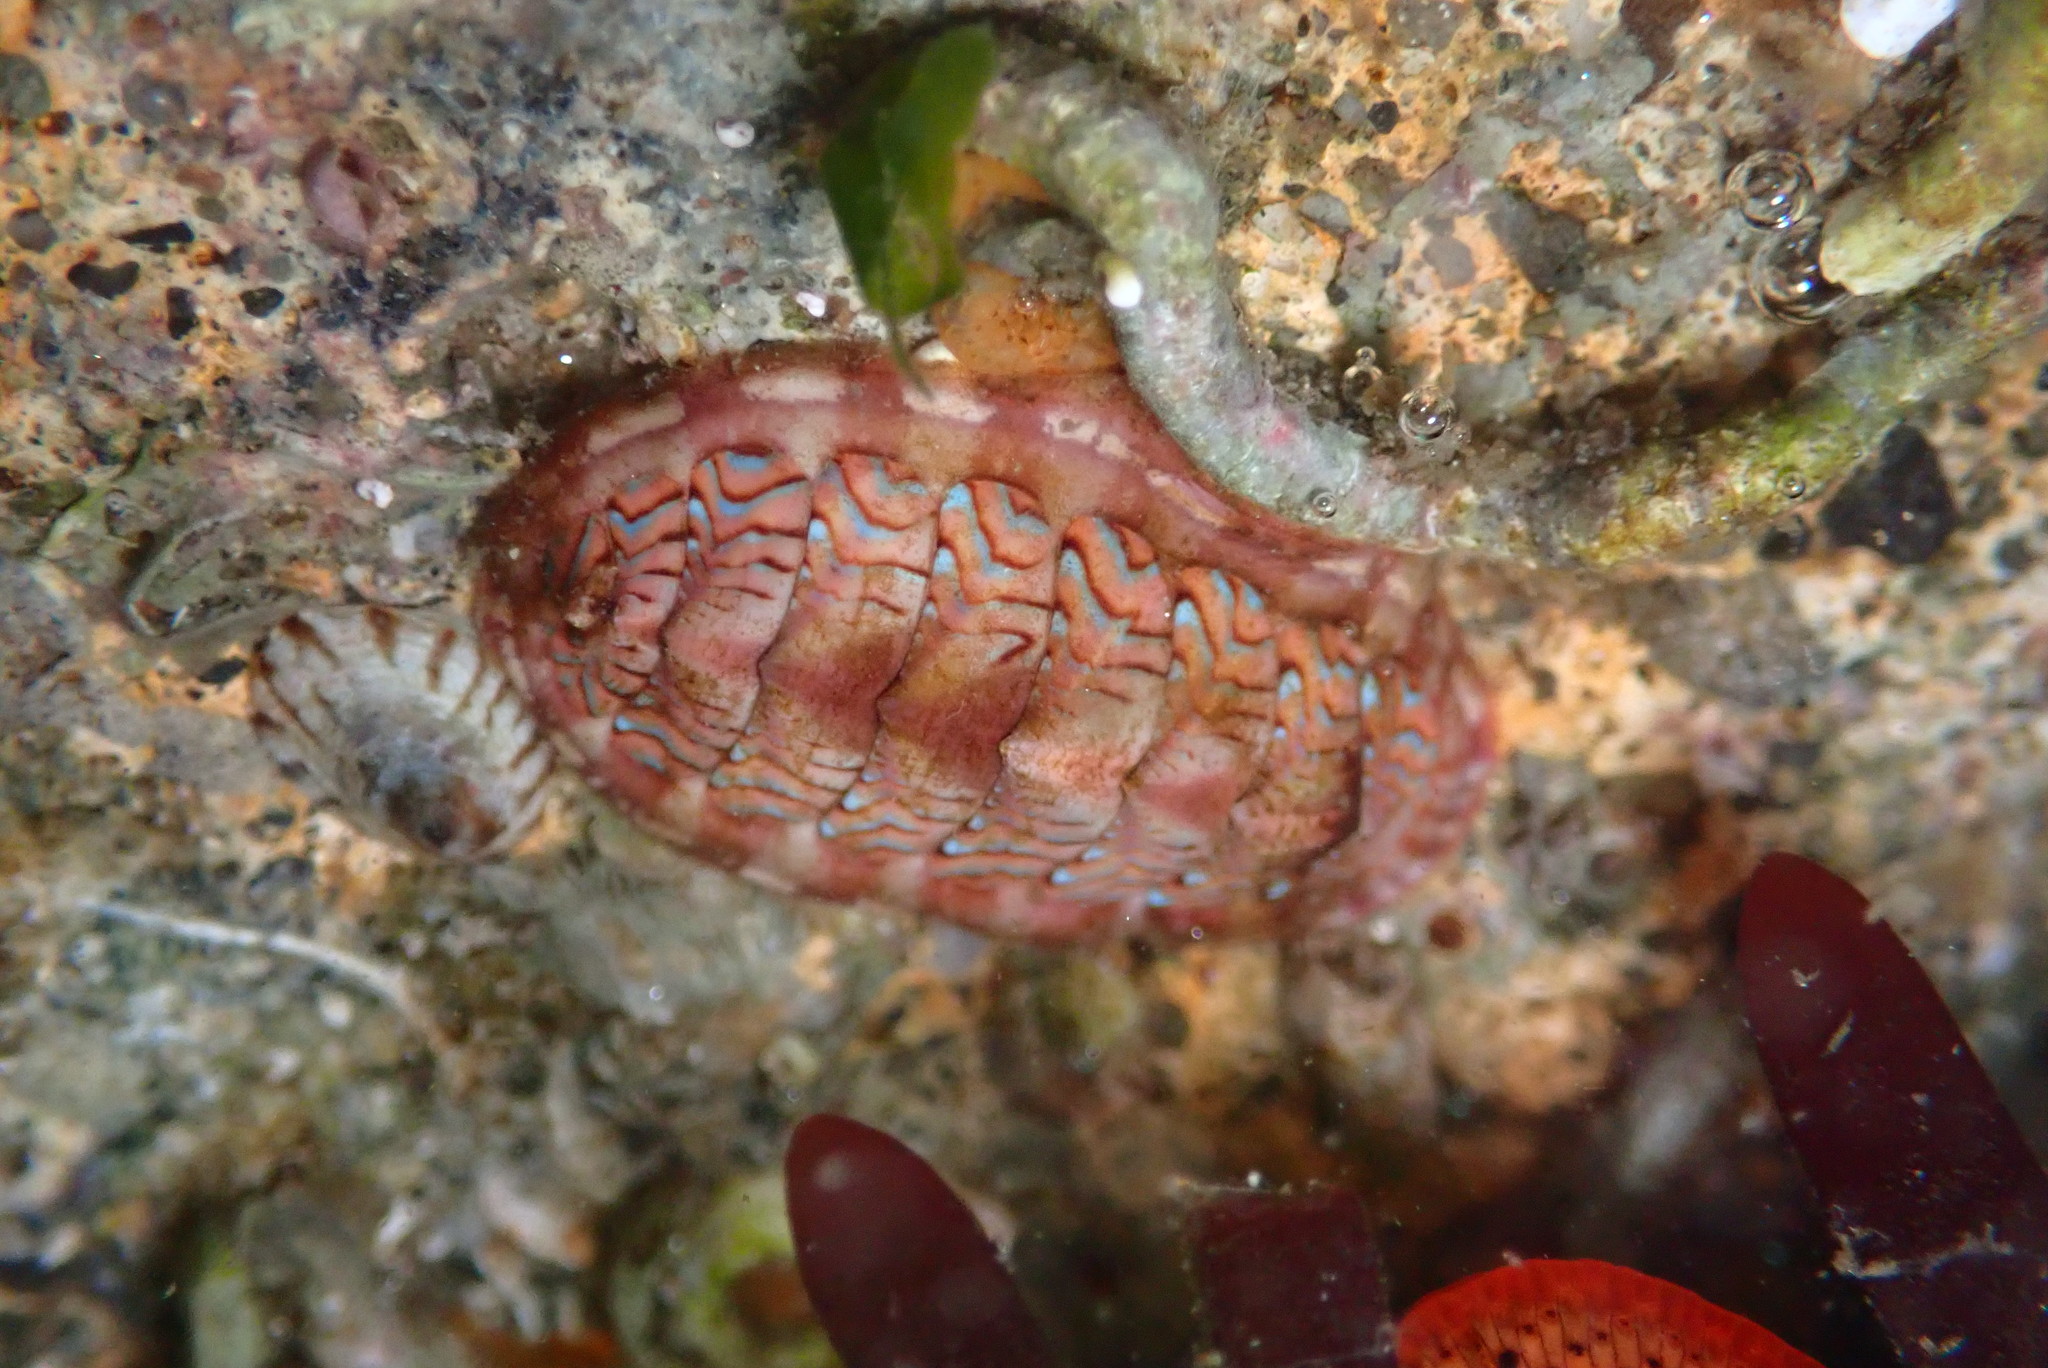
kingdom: Animalia
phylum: Mollusca
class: Polyplacophora
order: Chitonida
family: Tonicellidae
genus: Tonicella
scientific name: Tonicella lokii
